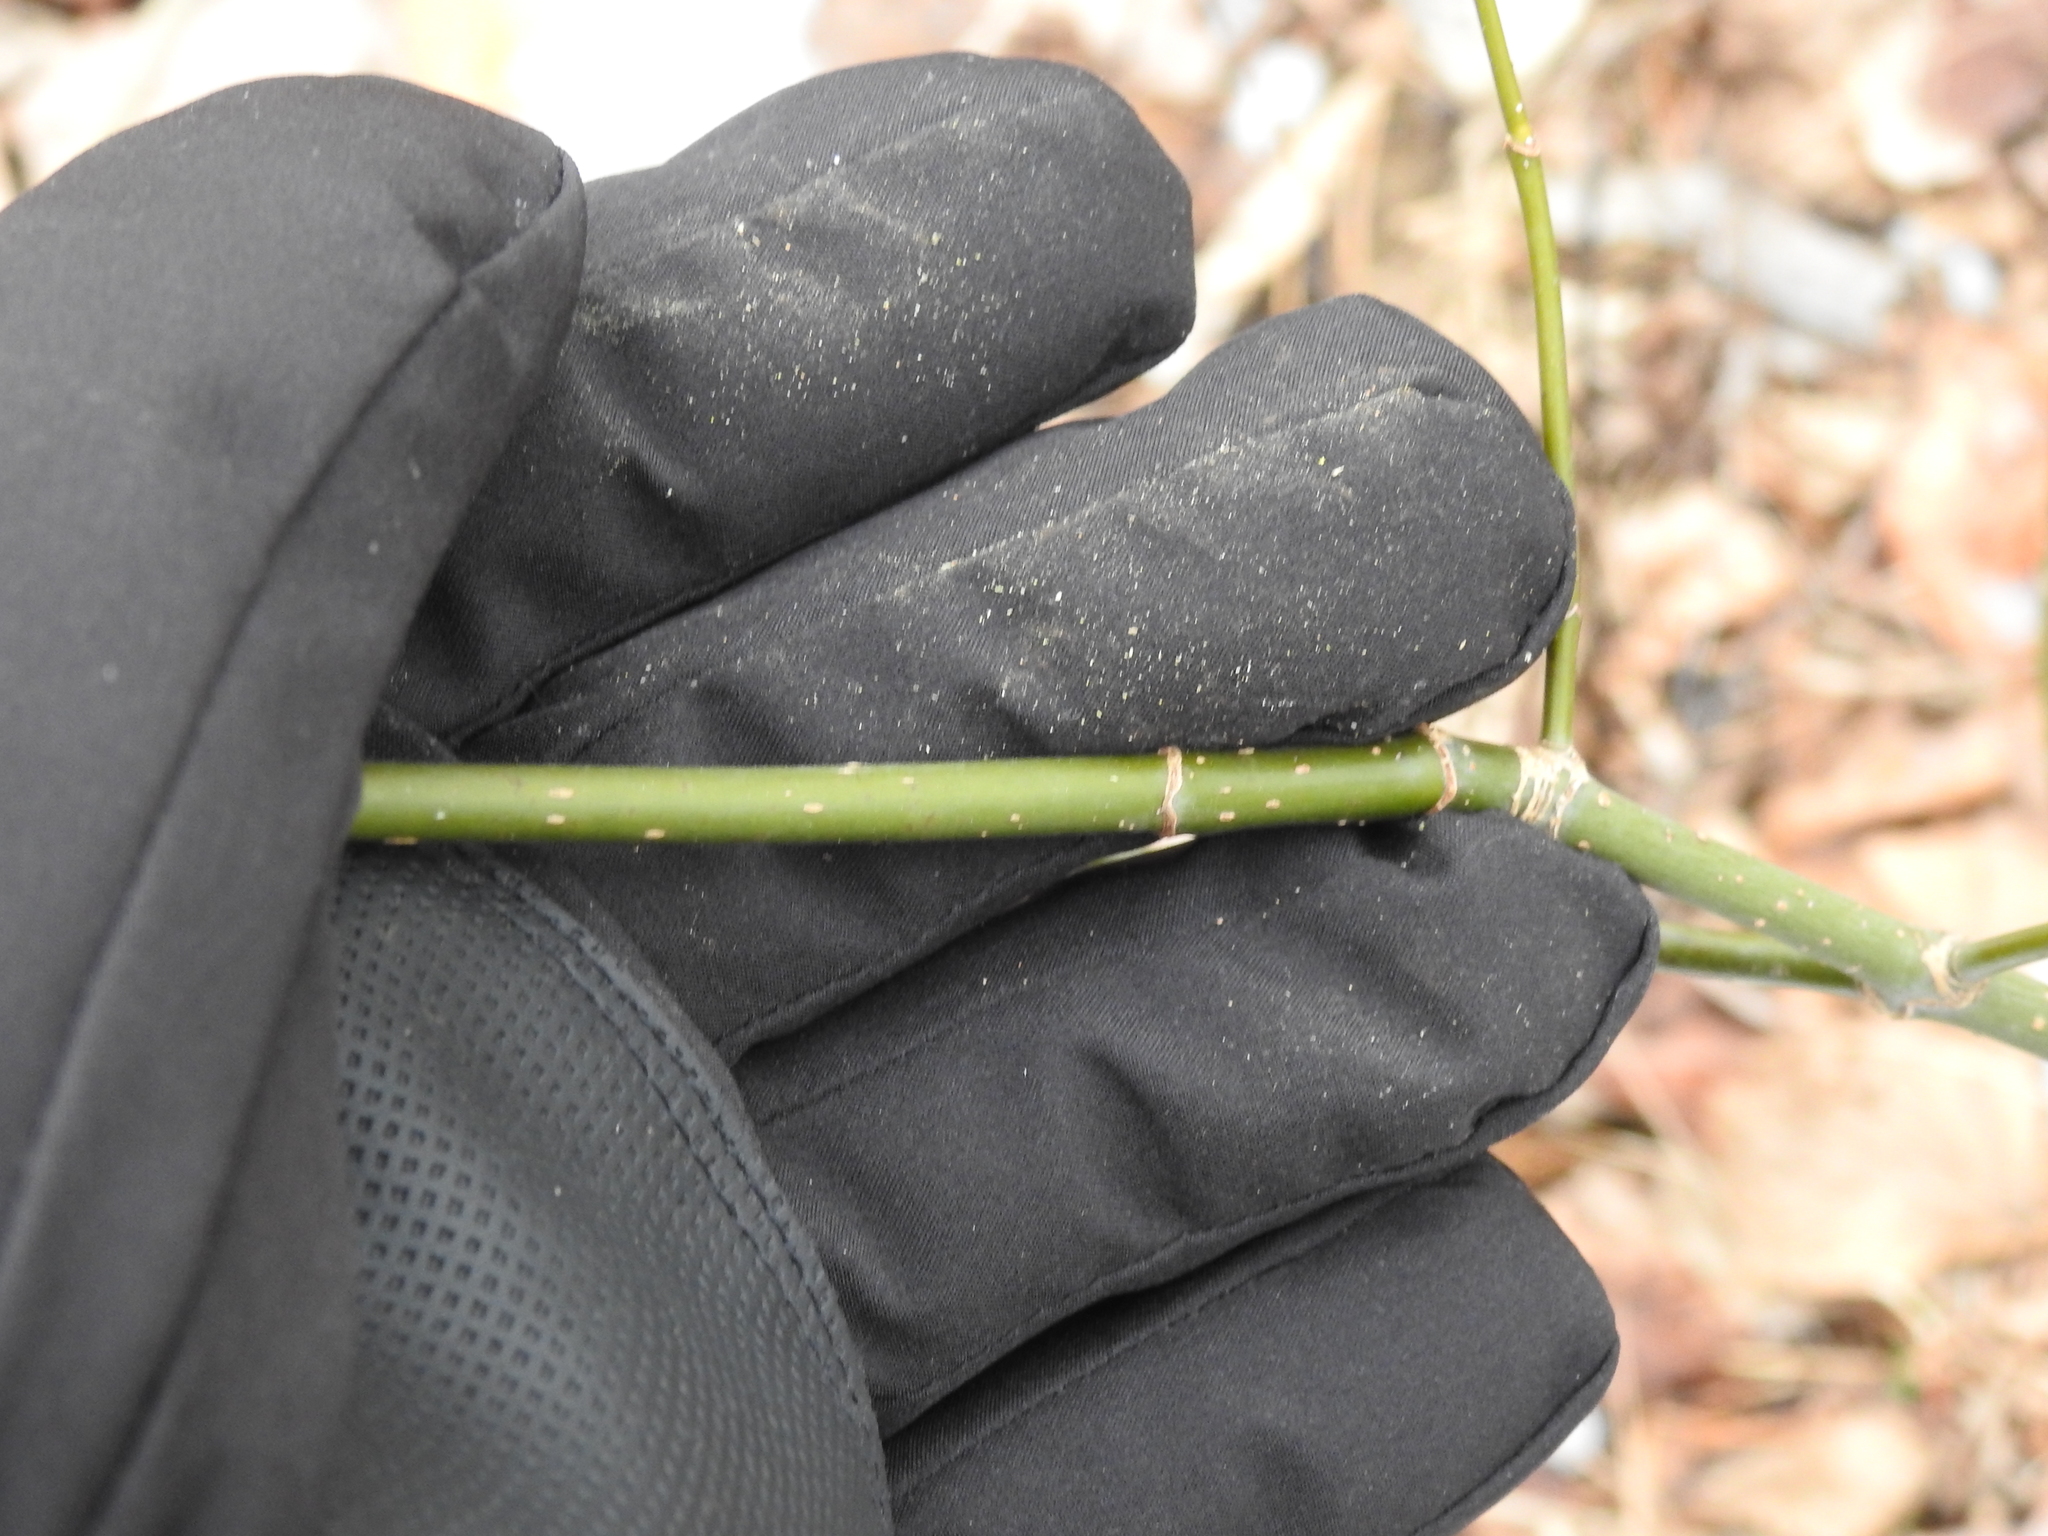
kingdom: Plantae
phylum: Tracheophyta
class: Magnoliopsida
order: Sapindales
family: Sapindaceae
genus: Acer
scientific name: Acer negundo
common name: Ashleaf maple
